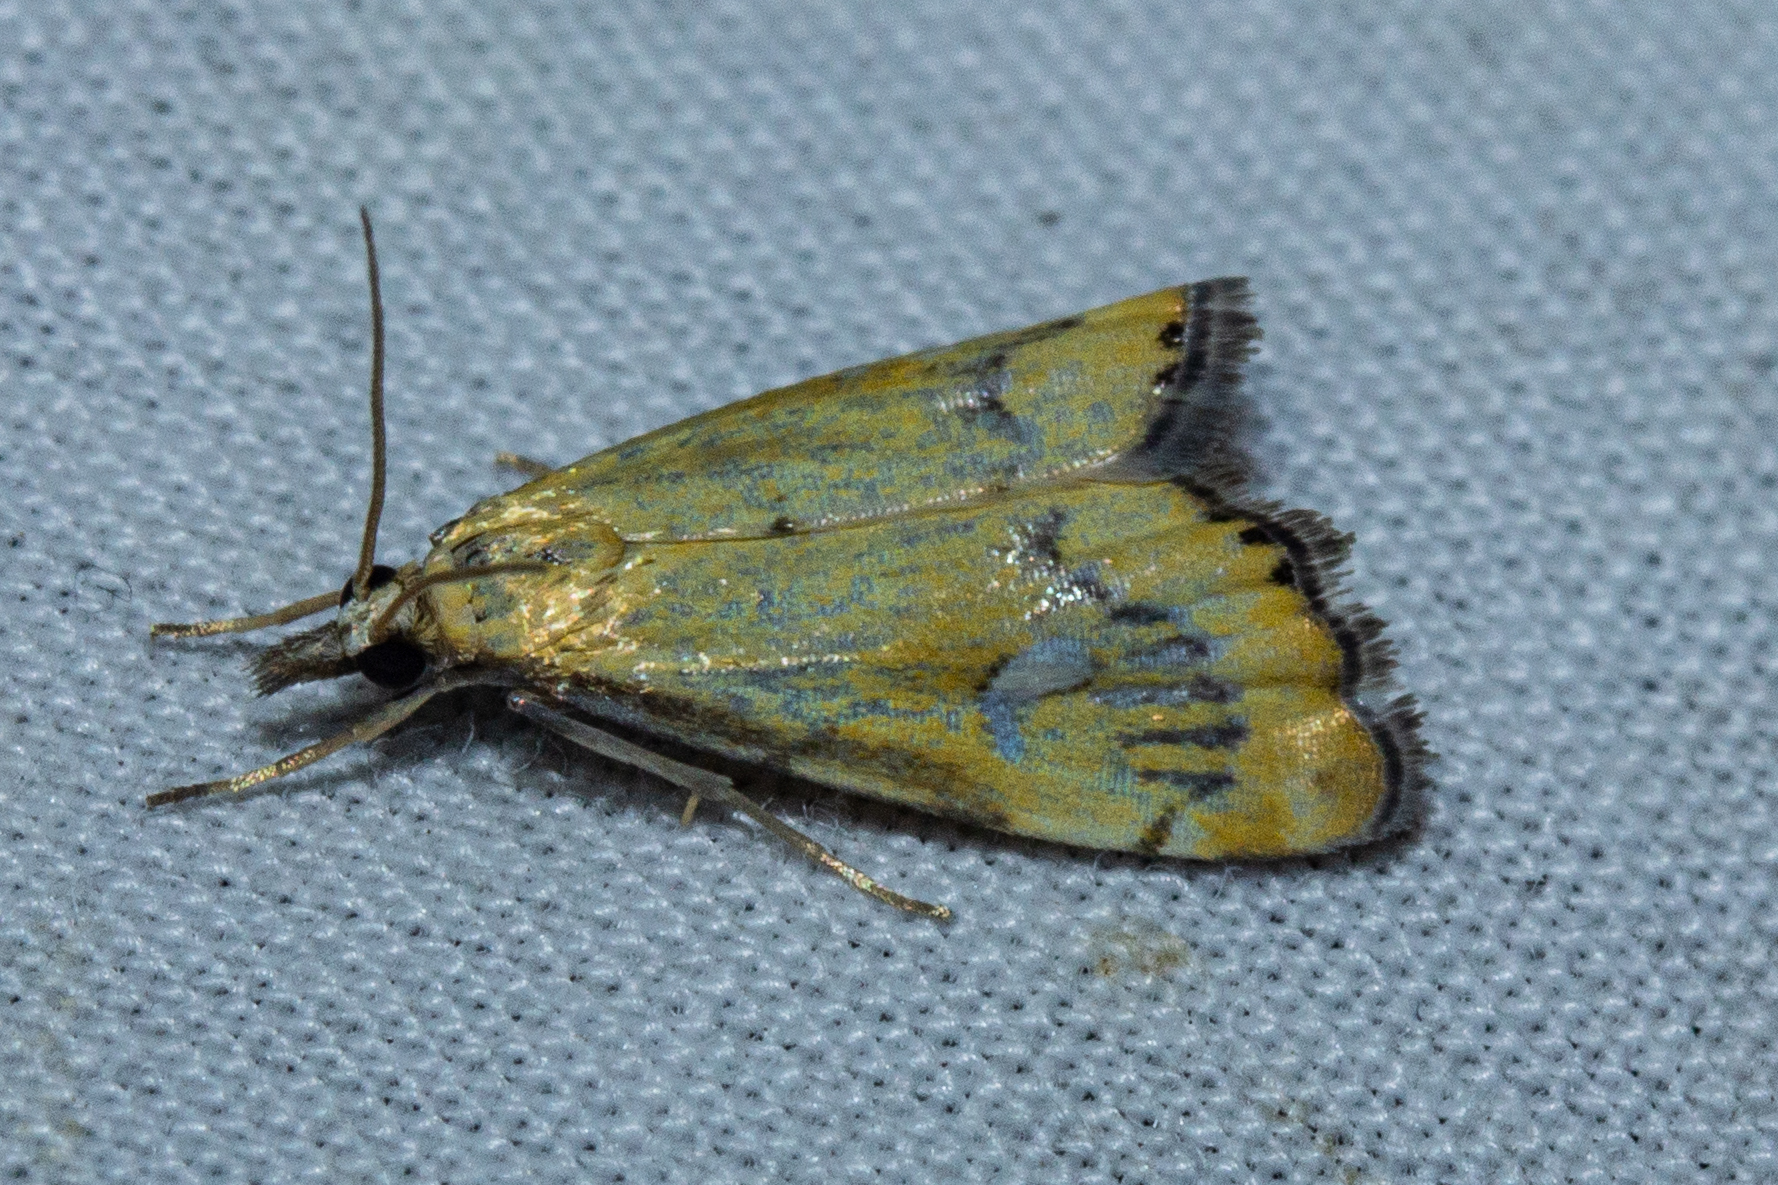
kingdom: Animalia
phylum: Arthropoda
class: Insecta
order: Lepidoptera
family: Crambidae
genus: Glaucocharis
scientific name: Glaucocharis lepidella
